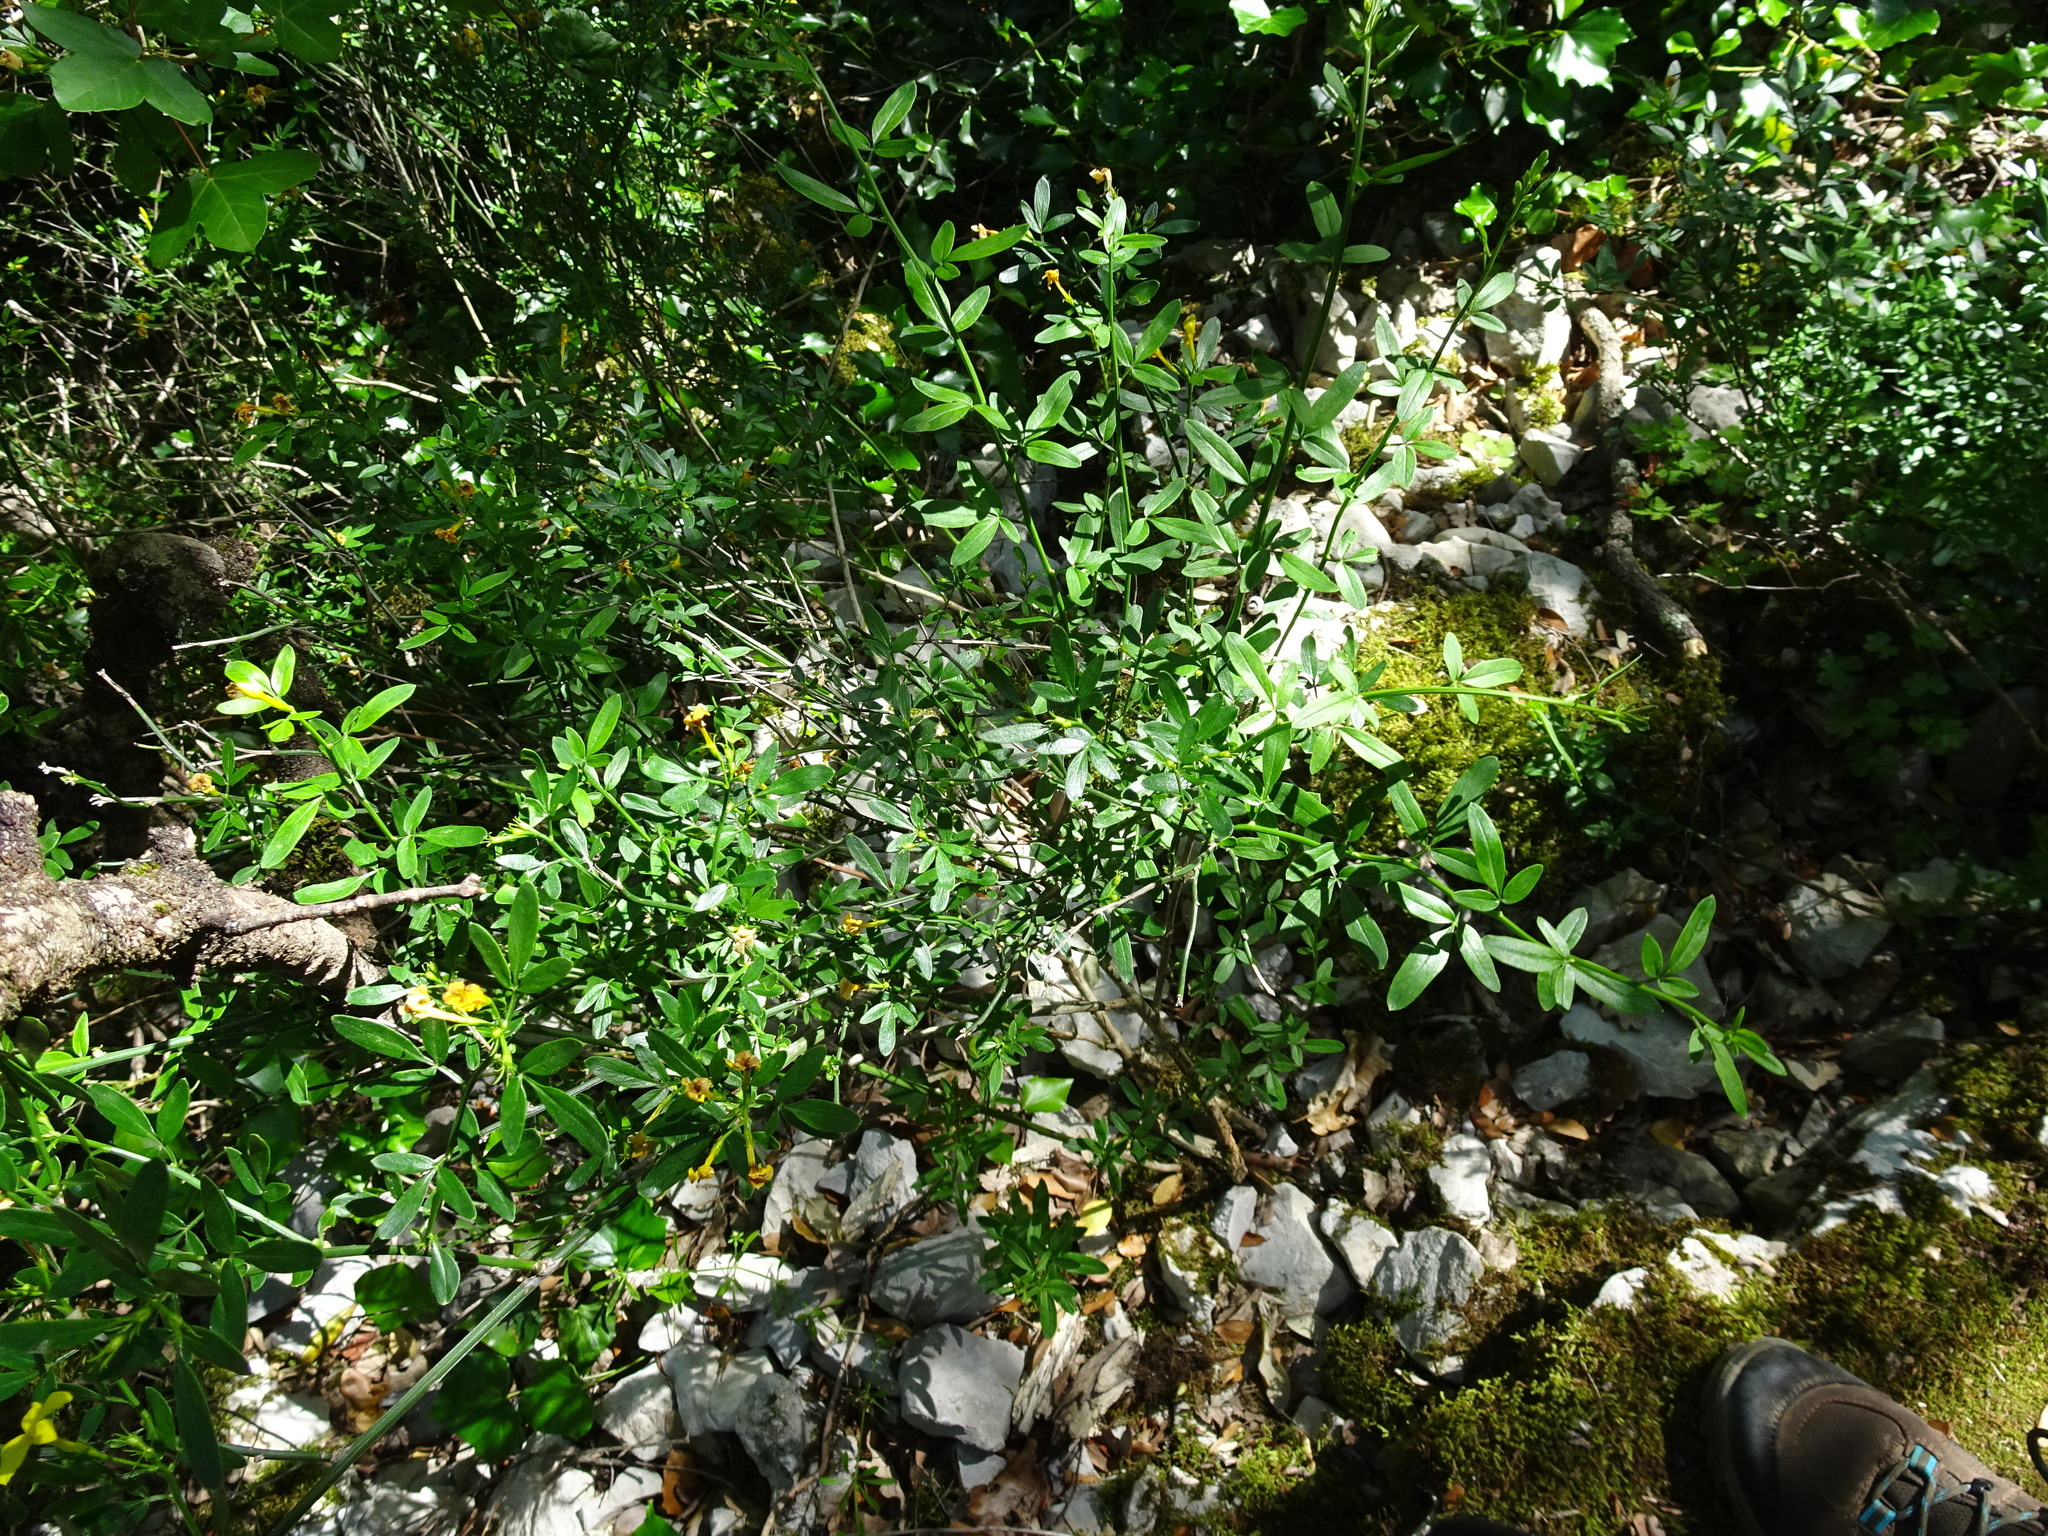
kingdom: Plantae
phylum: Tracheophyta
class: Magnoliopsida
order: Lamiales
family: Oleaceae
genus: Chrysojasminum
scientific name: Chrysojasminum fruticans
